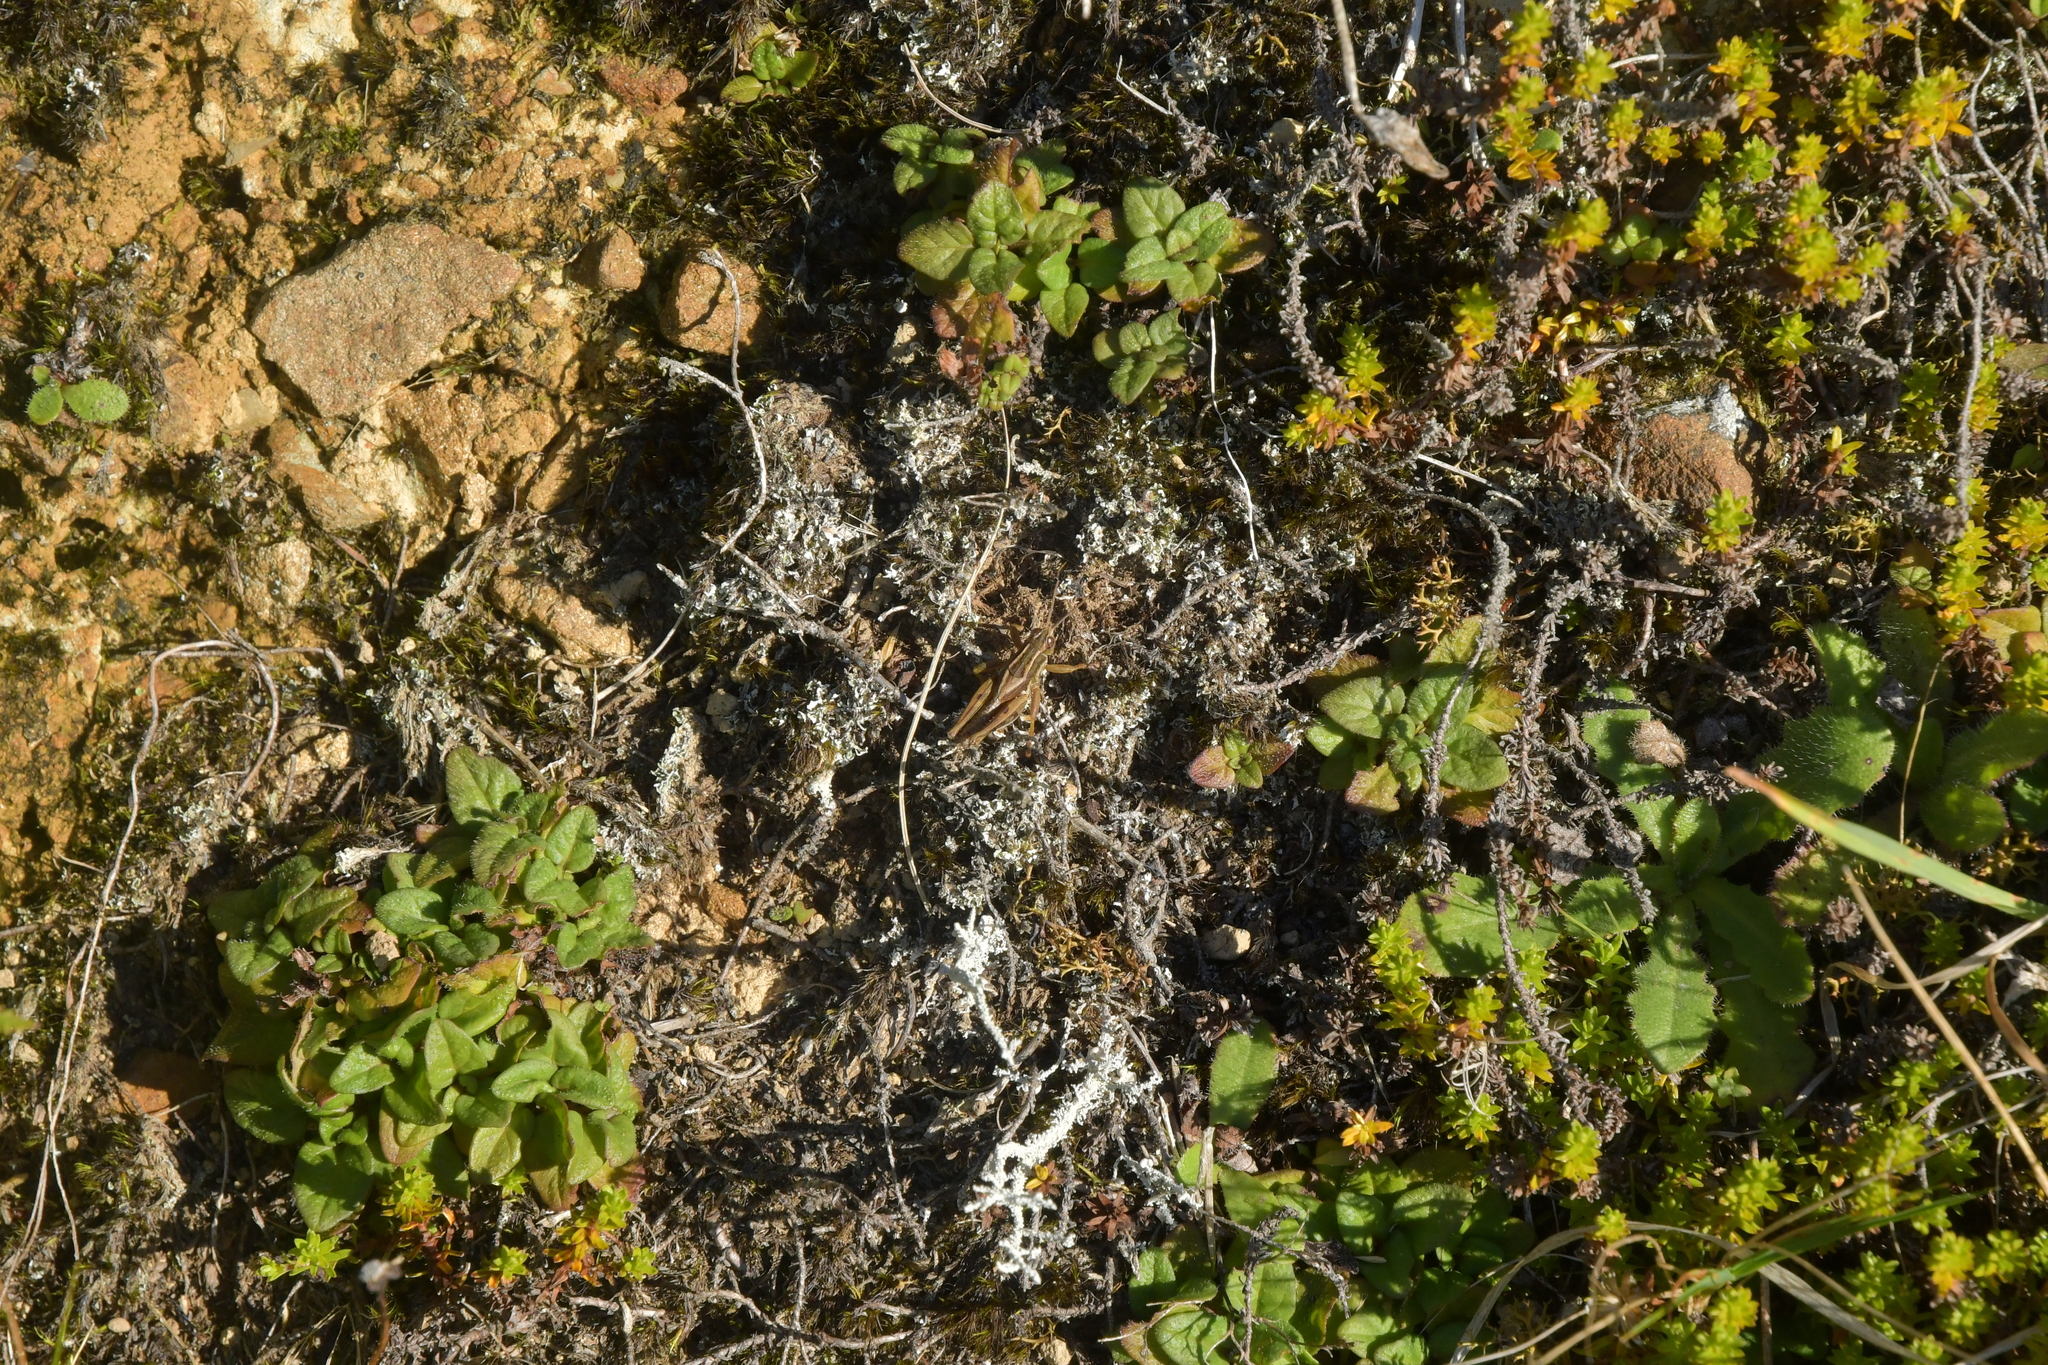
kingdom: Animalia
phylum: Arthropoda
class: Insecta
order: Orthoptera
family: Acrididae
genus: Phaulacridium
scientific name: Phaulacridium marginale
